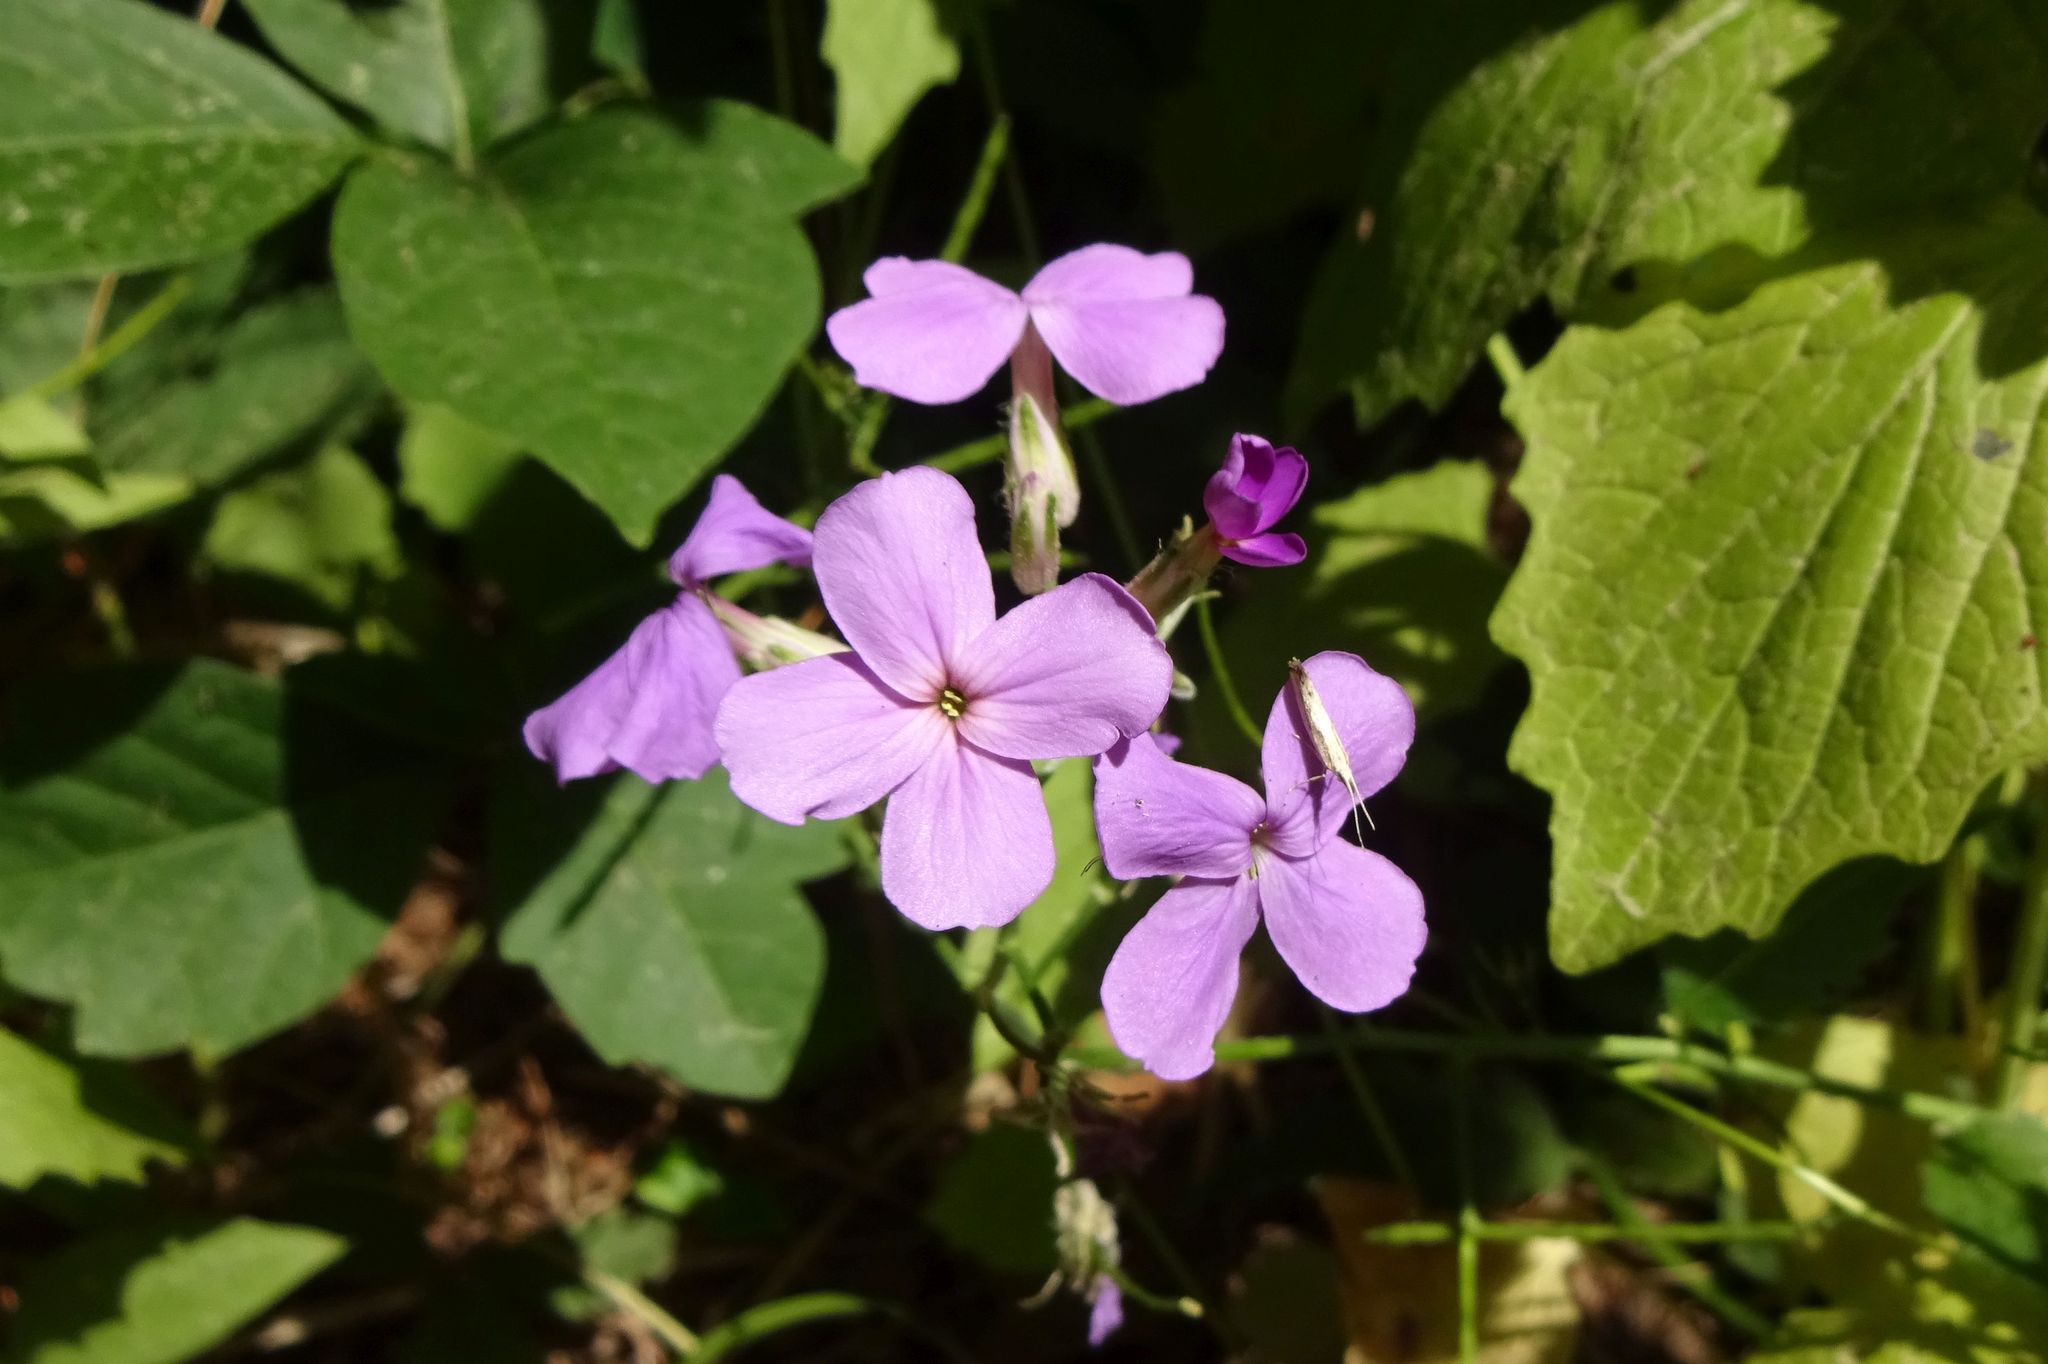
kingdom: Plantae
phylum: Tracheophyta
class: Magnoliopsida
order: Brassicales
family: Brassicaceae
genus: Hesperis
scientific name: Hesperis matronalis
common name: Dame's-violet
